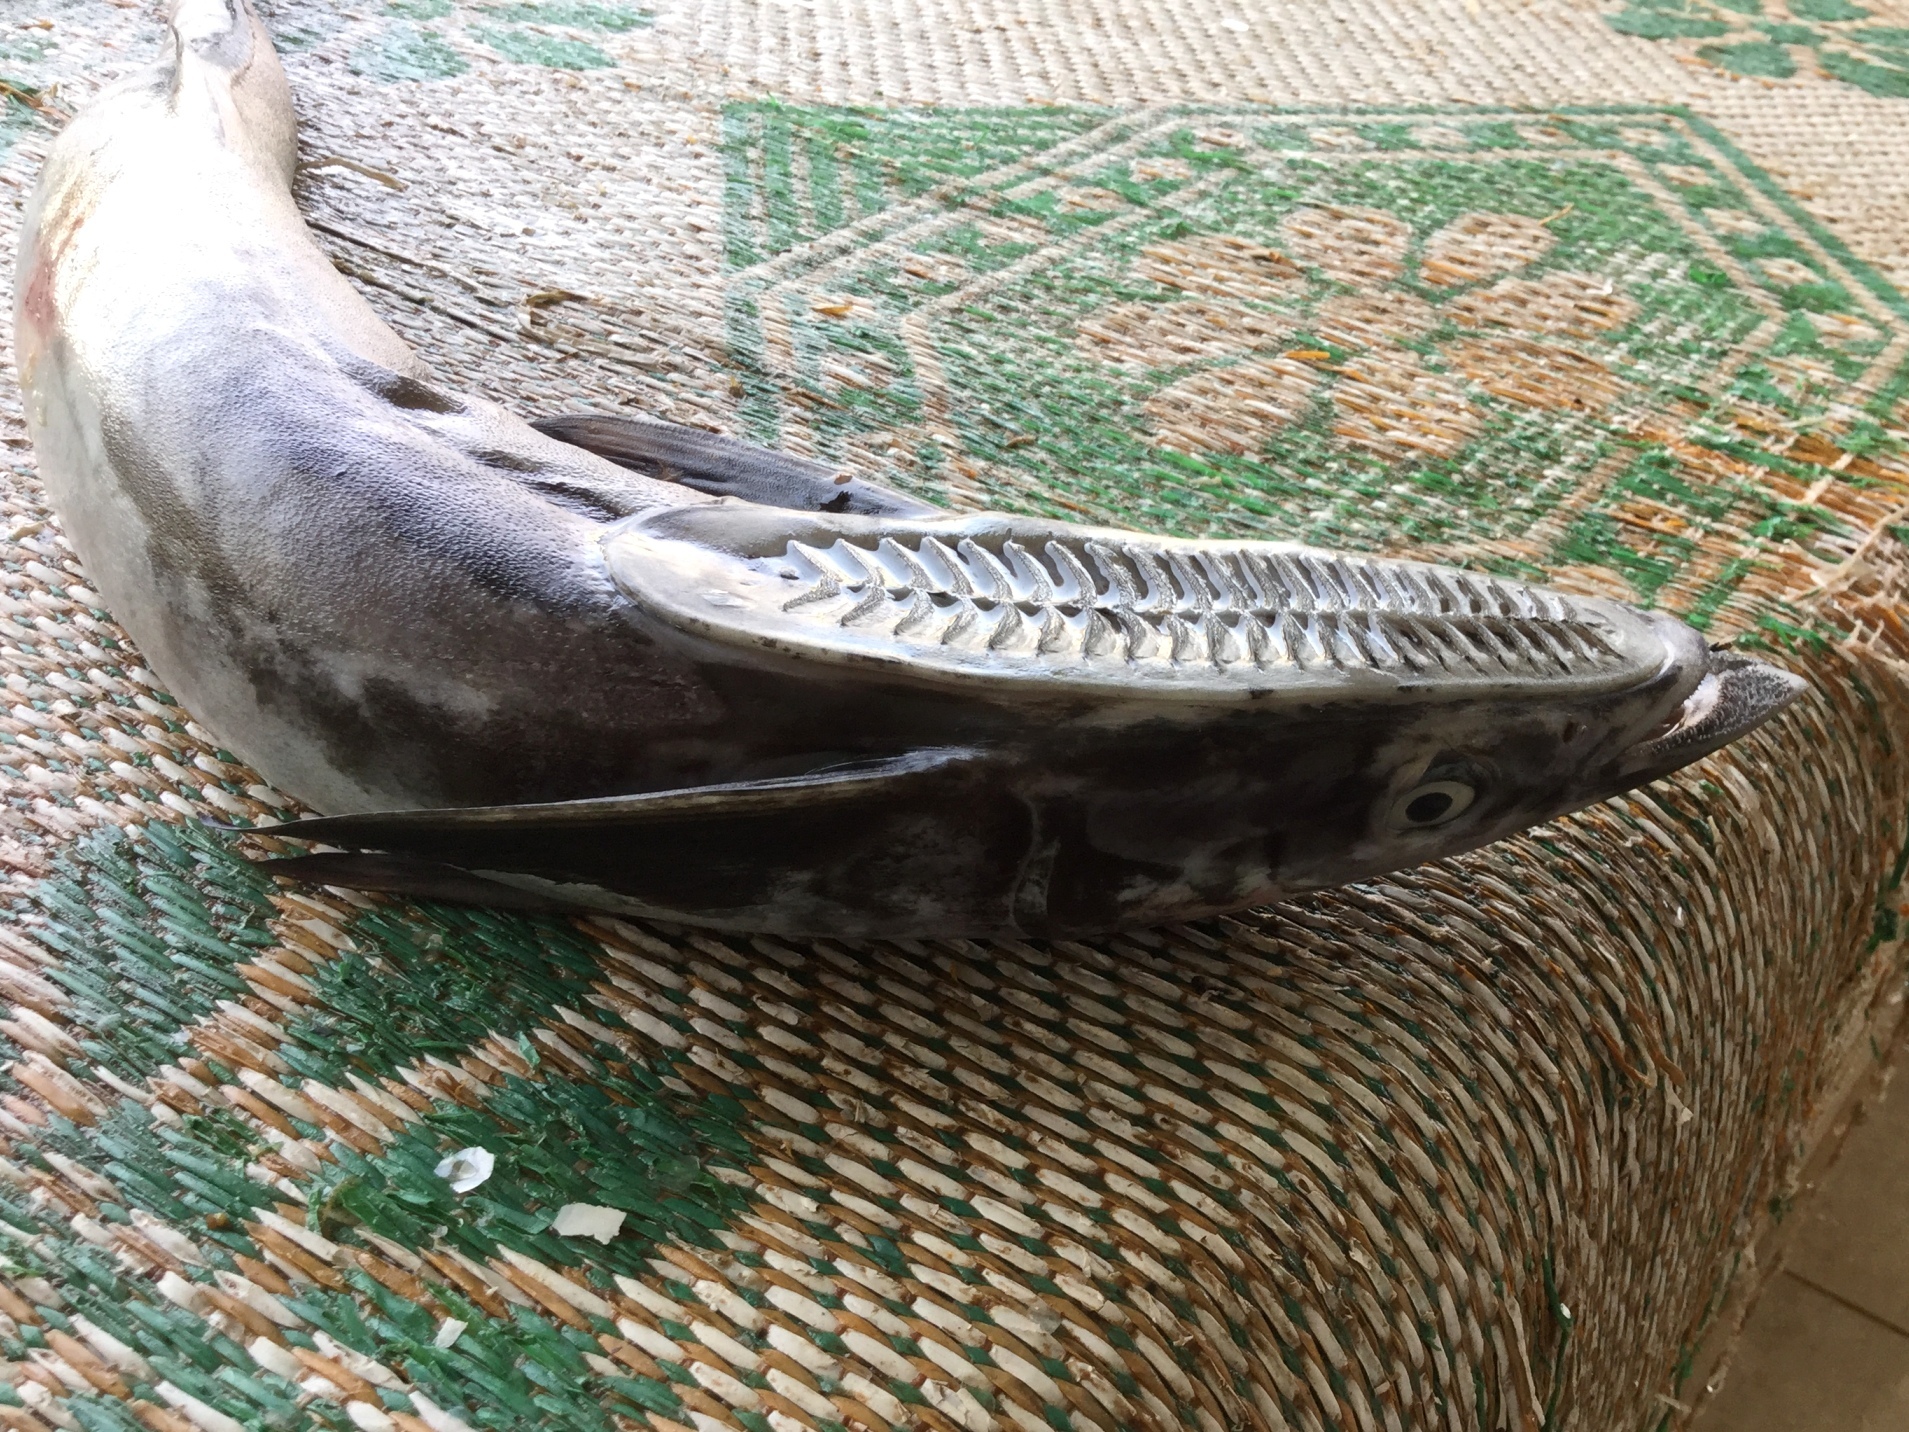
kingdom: Animalia
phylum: Chordata
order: Perciformes
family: Echeneidae
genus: Echeneis
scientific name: Echeneis naucrates
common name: Sharksucker
